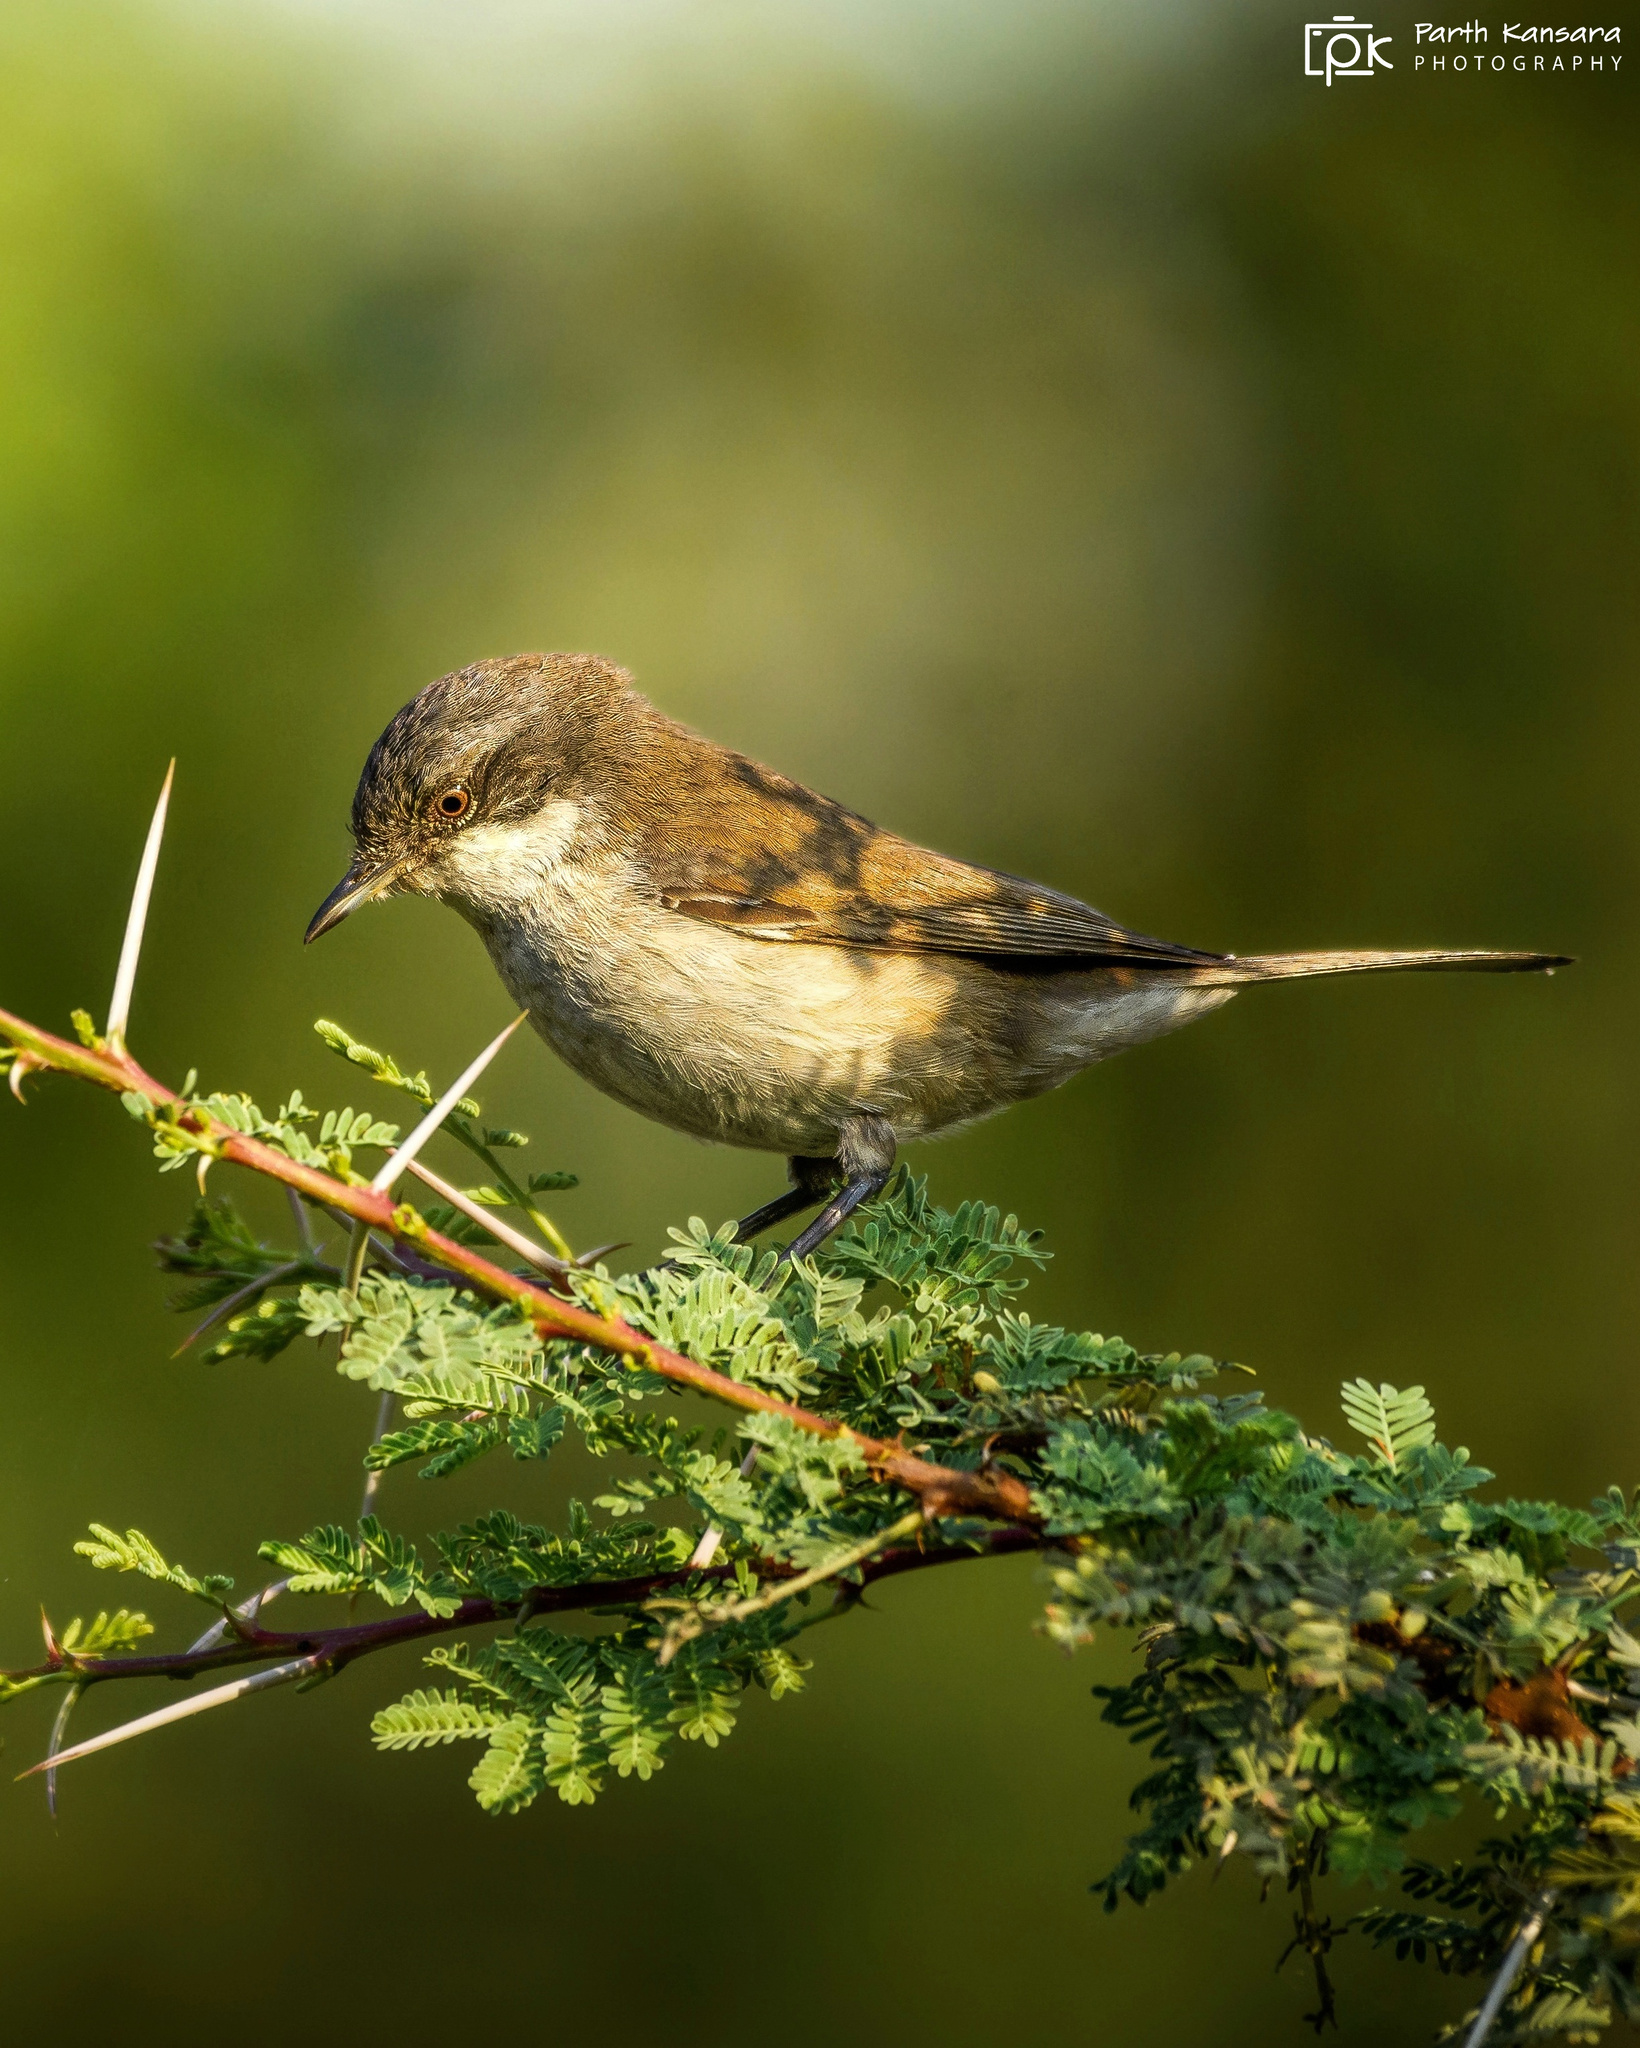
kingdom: Animalia
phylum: Chordata
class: Aves
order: Passeriformes
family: Sylviidae
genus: Sylvia
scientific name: Sylvia curruca
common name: Lesser whitethroat
